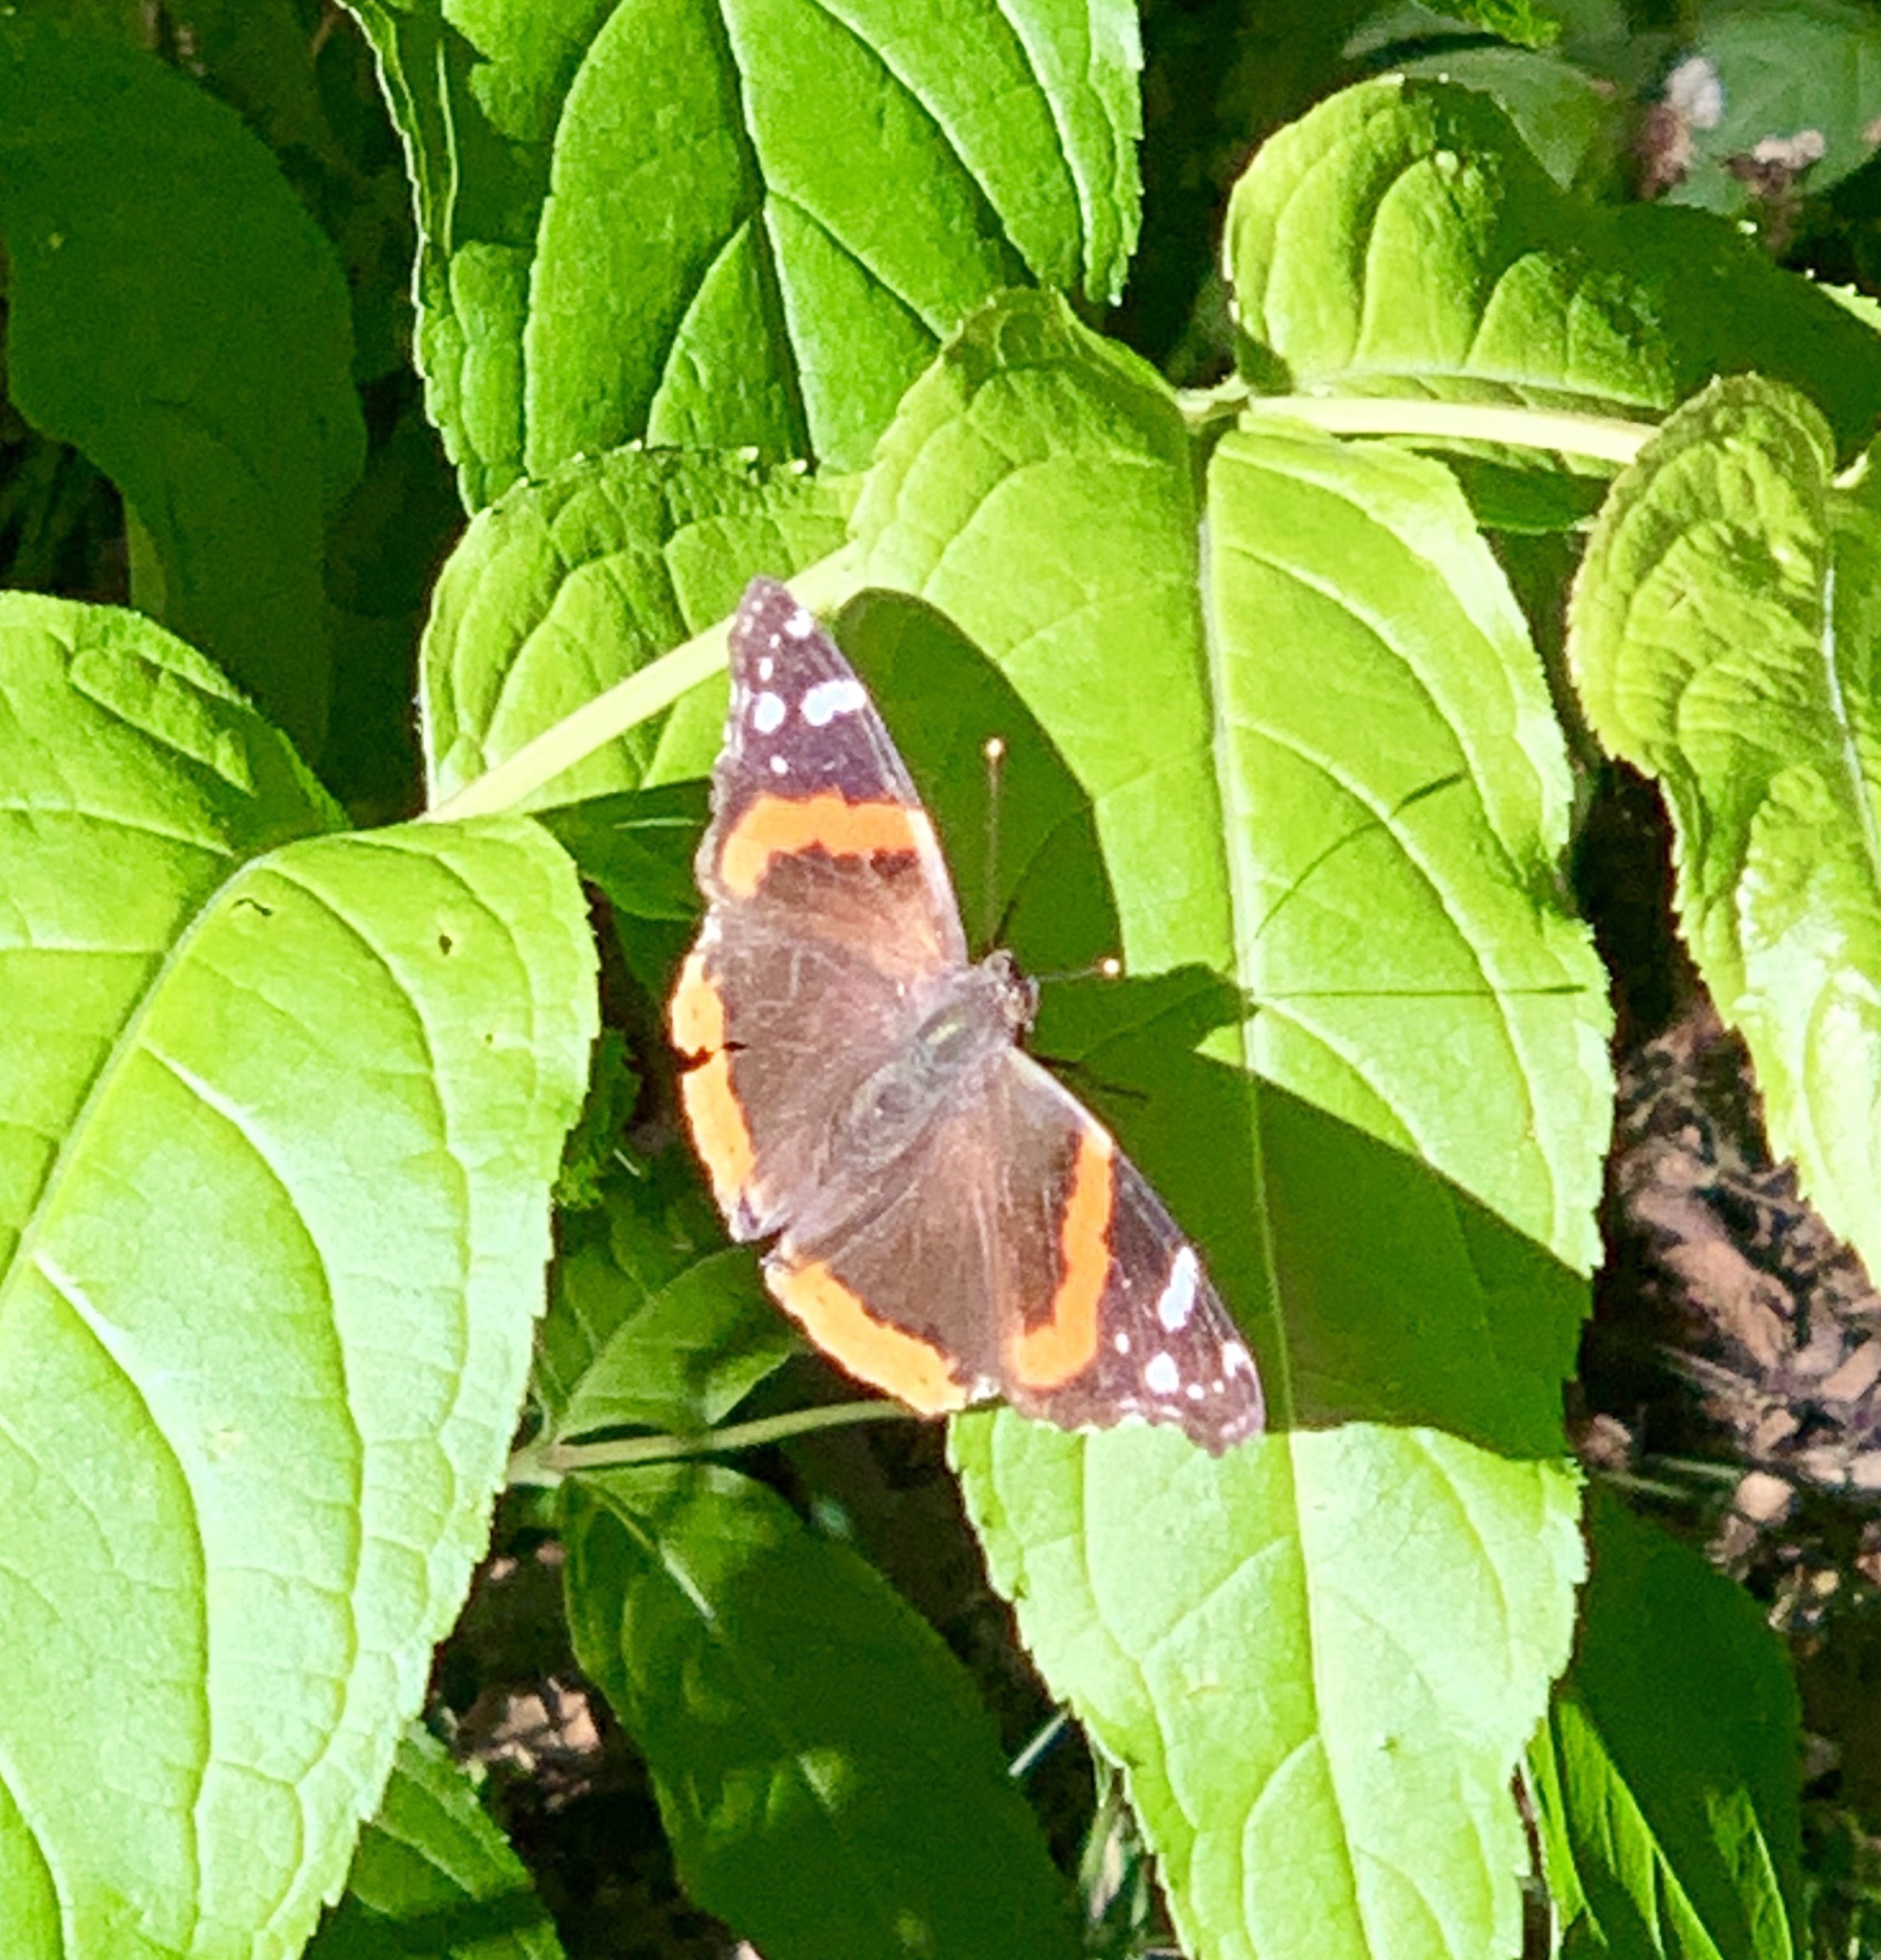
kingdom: Animalia
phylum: Arthropoda
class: Insecta
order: Lepidoptera
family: Nymphalidae
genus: Vanessa
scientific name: Vanessa atalanta
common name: Red admiral
